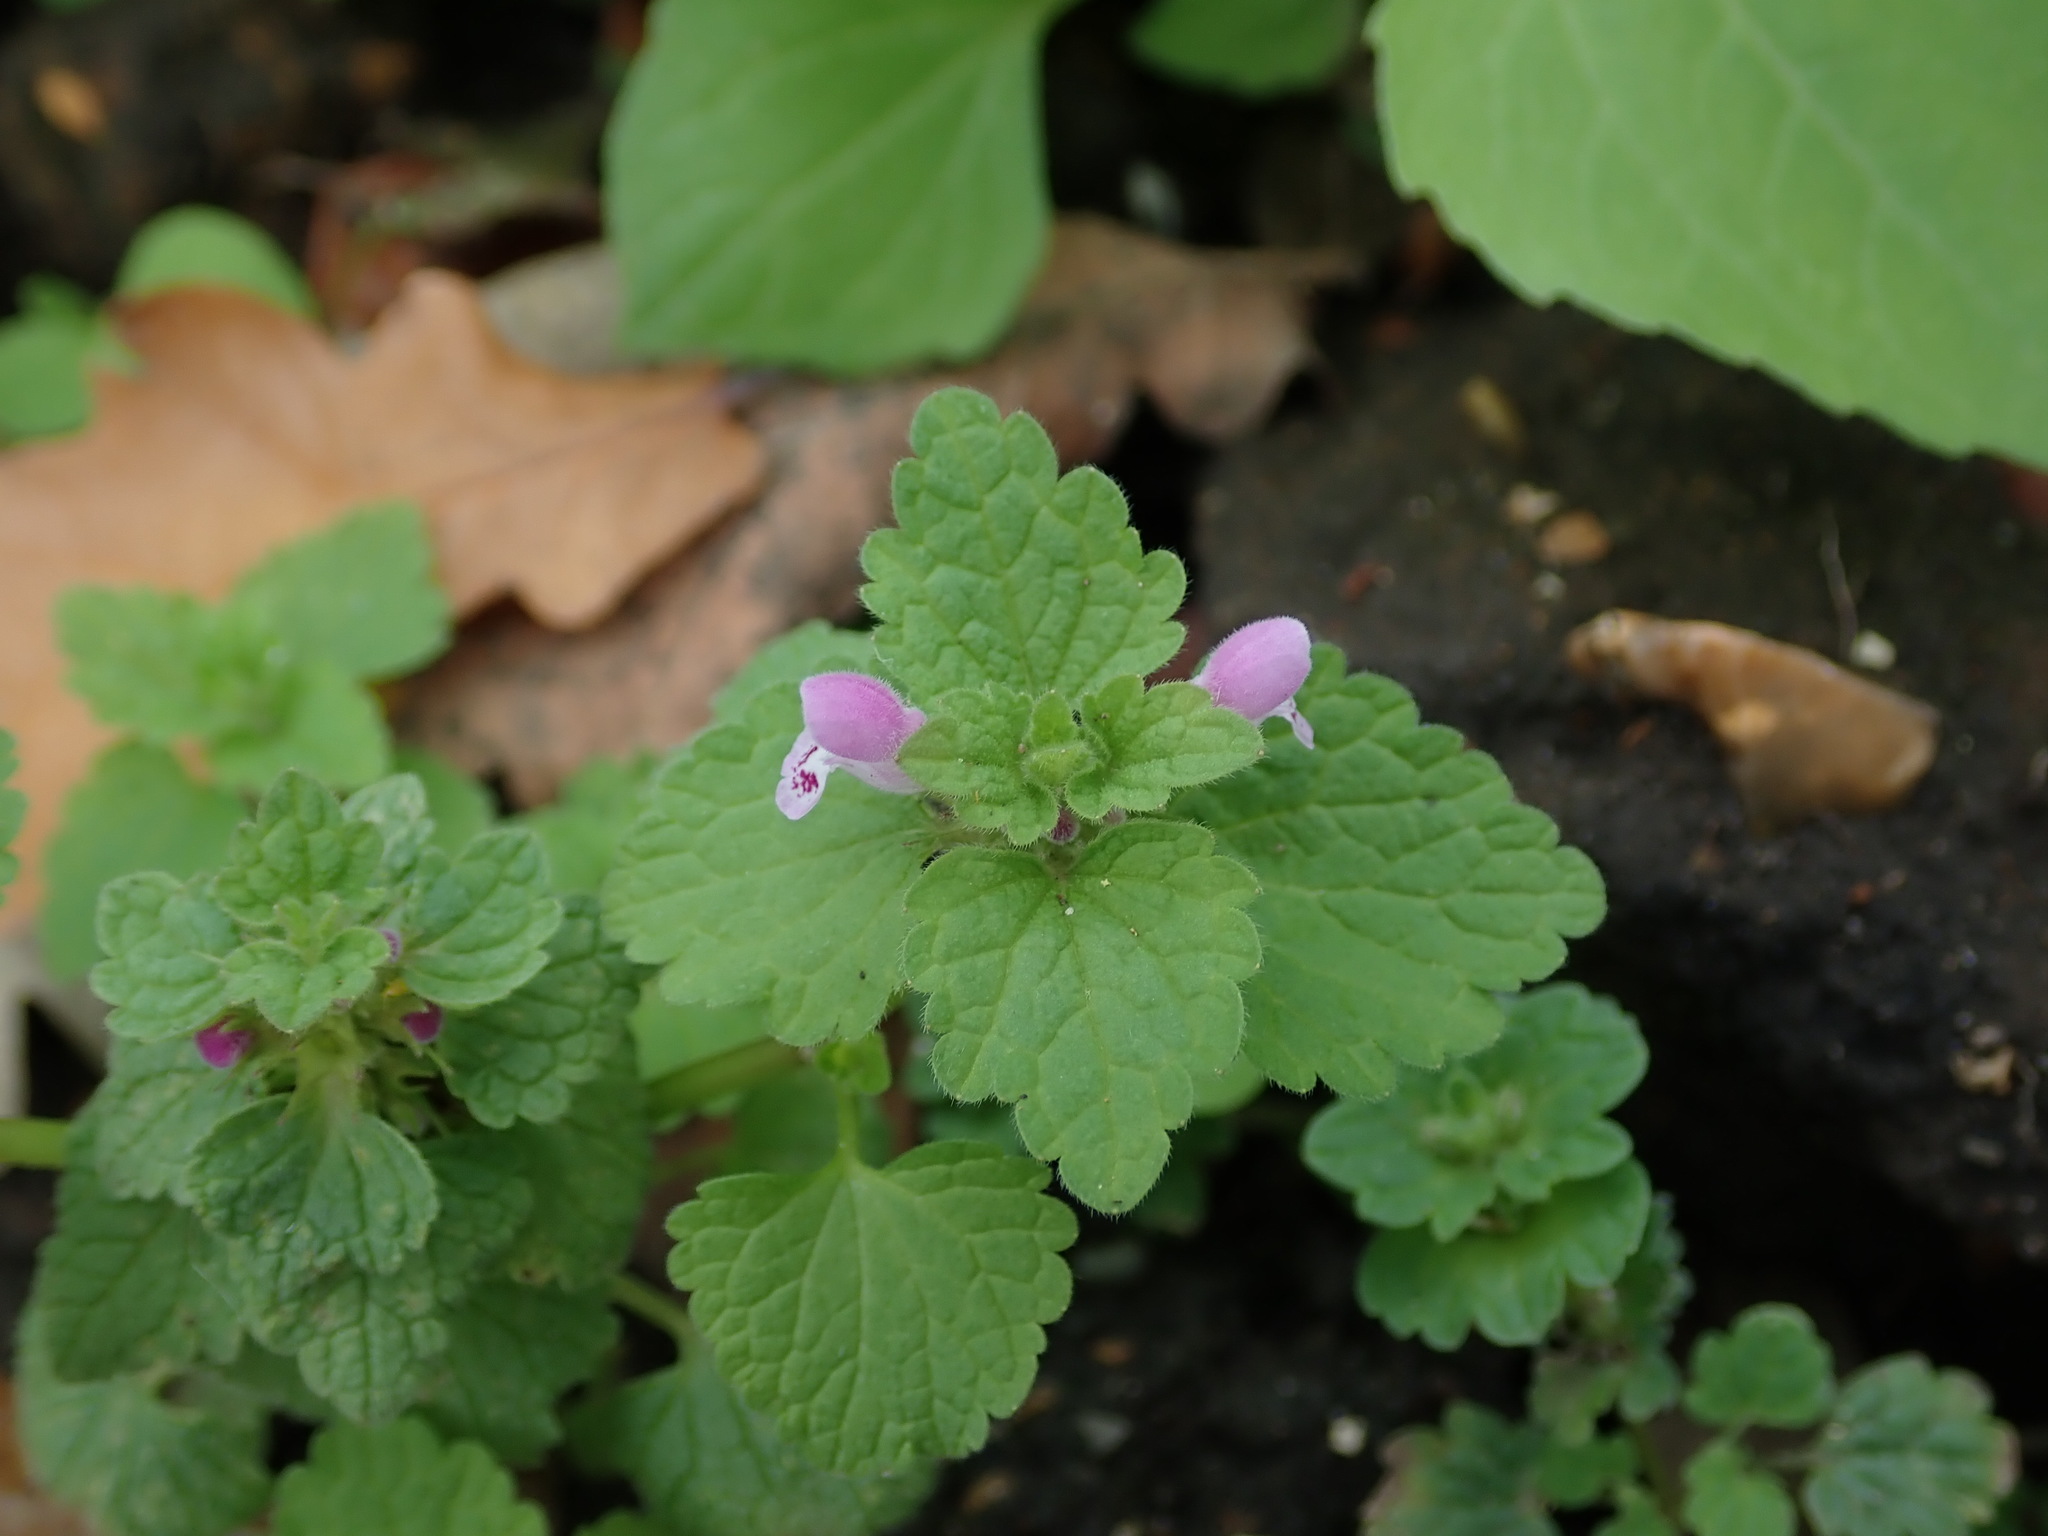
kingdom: Plantae
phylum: Tracheophyta
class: Magnoliopsida
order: Lamiales
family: Lamiaceae
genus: Lamium
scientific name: Lamium purpureum
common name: Red dead-nettle
